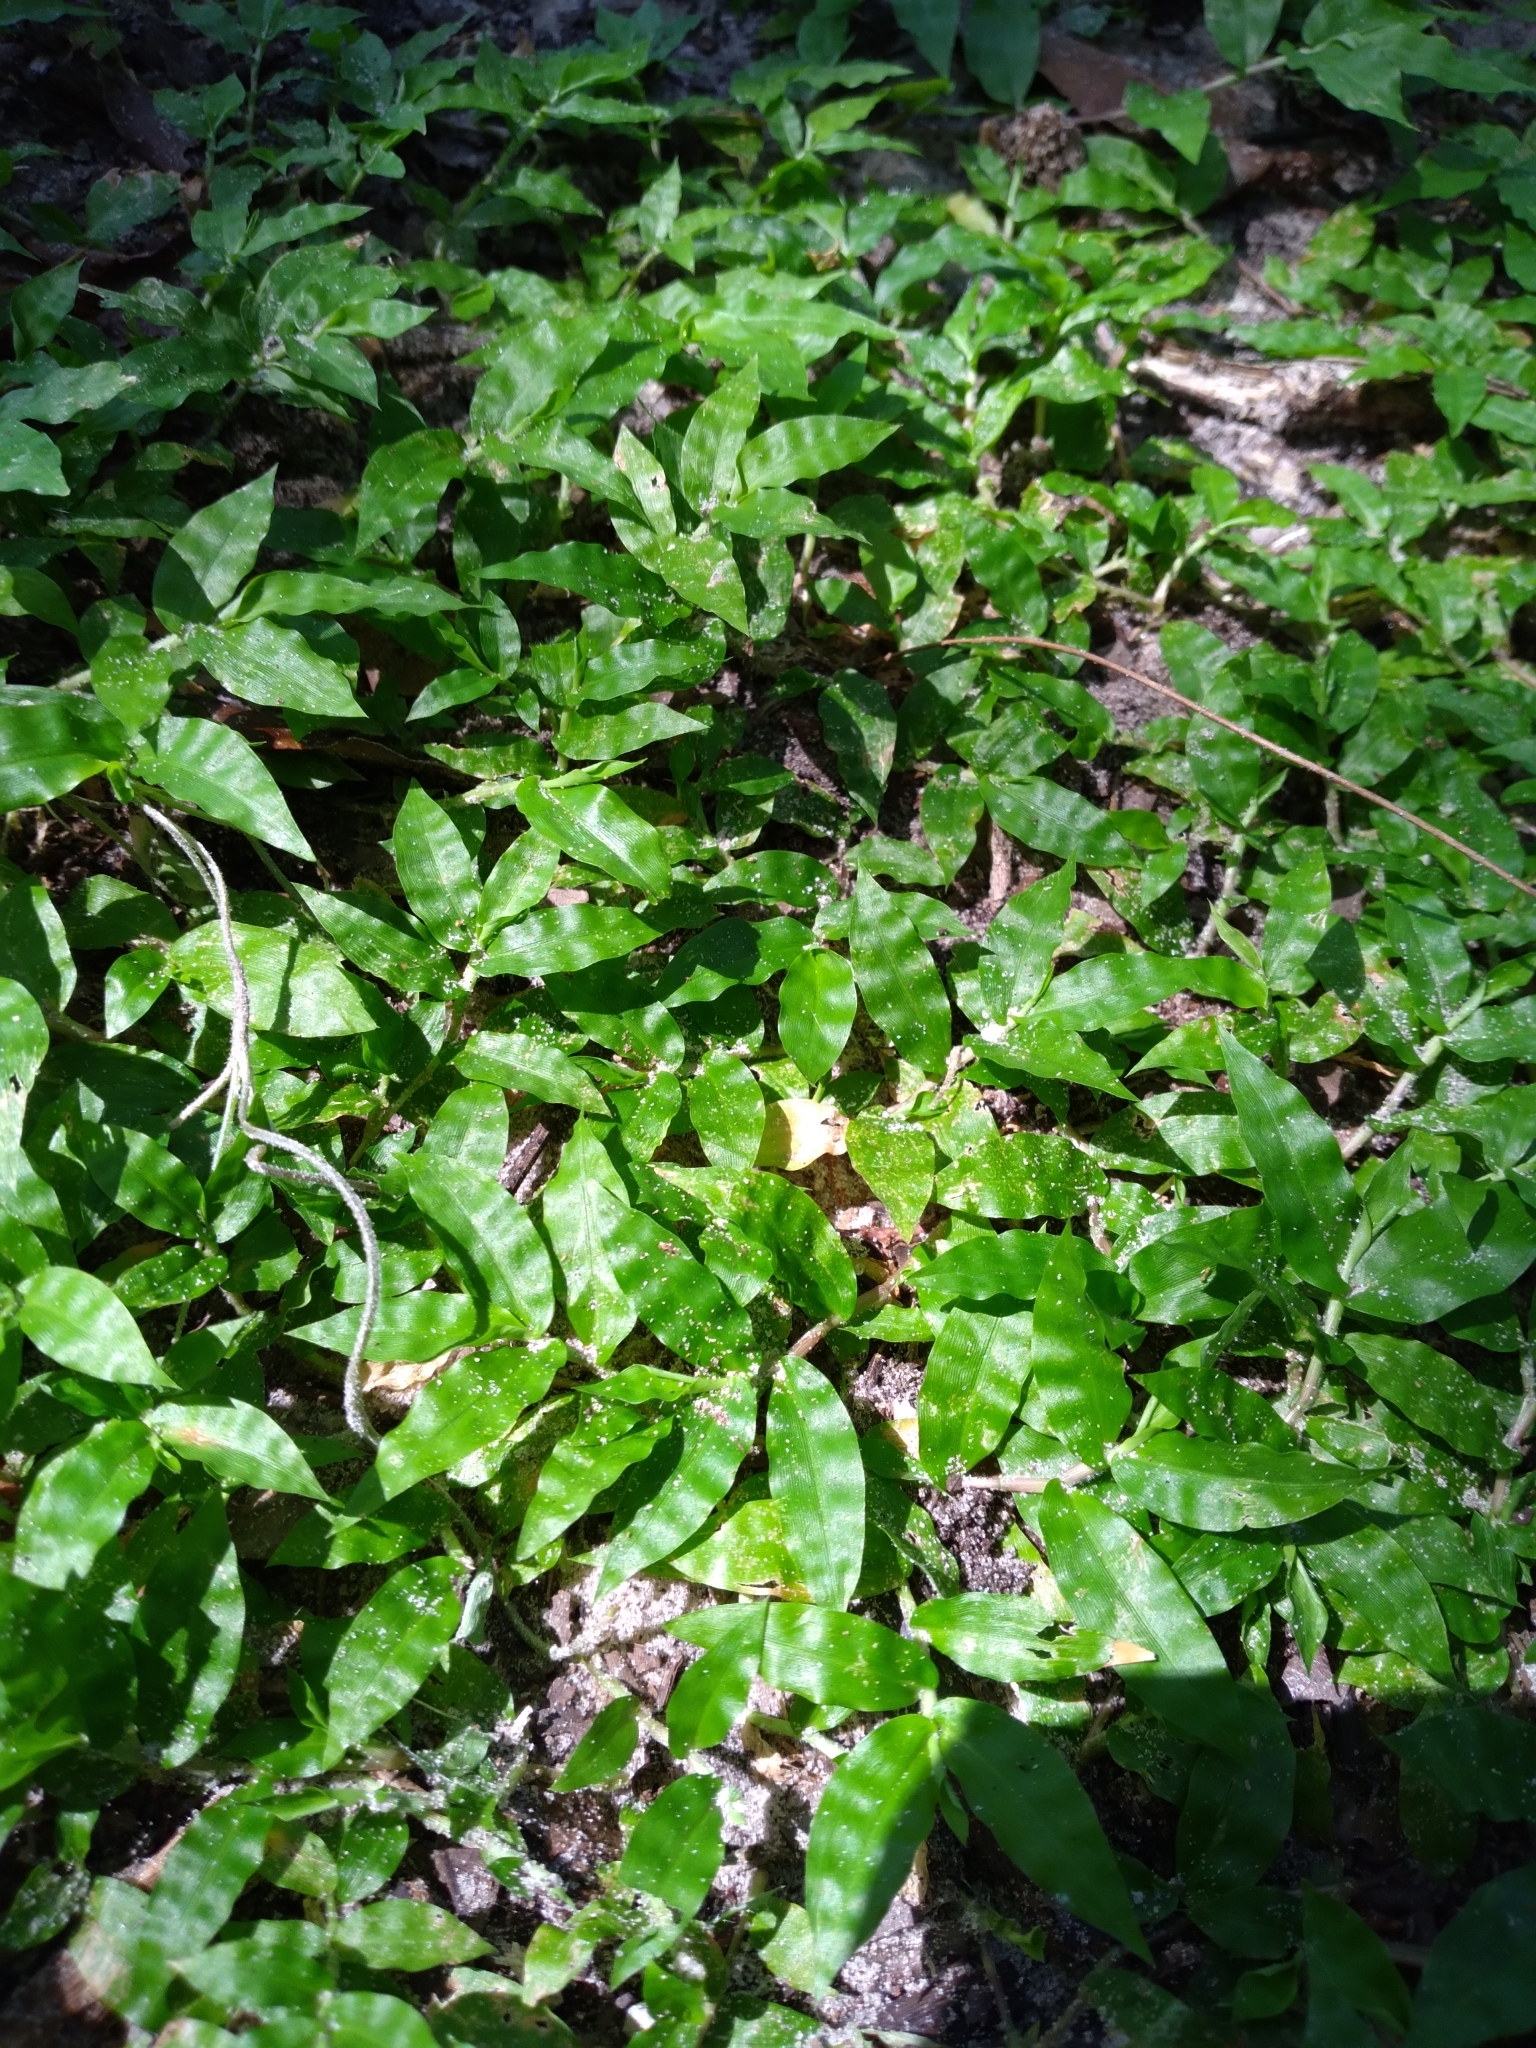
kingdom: Plantae
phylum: Tracheophyta
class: Liliopsida
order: Poales
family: Poaceae
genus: Oplismenus
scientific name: Oplismenus hirtellus
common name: Basketgrass
